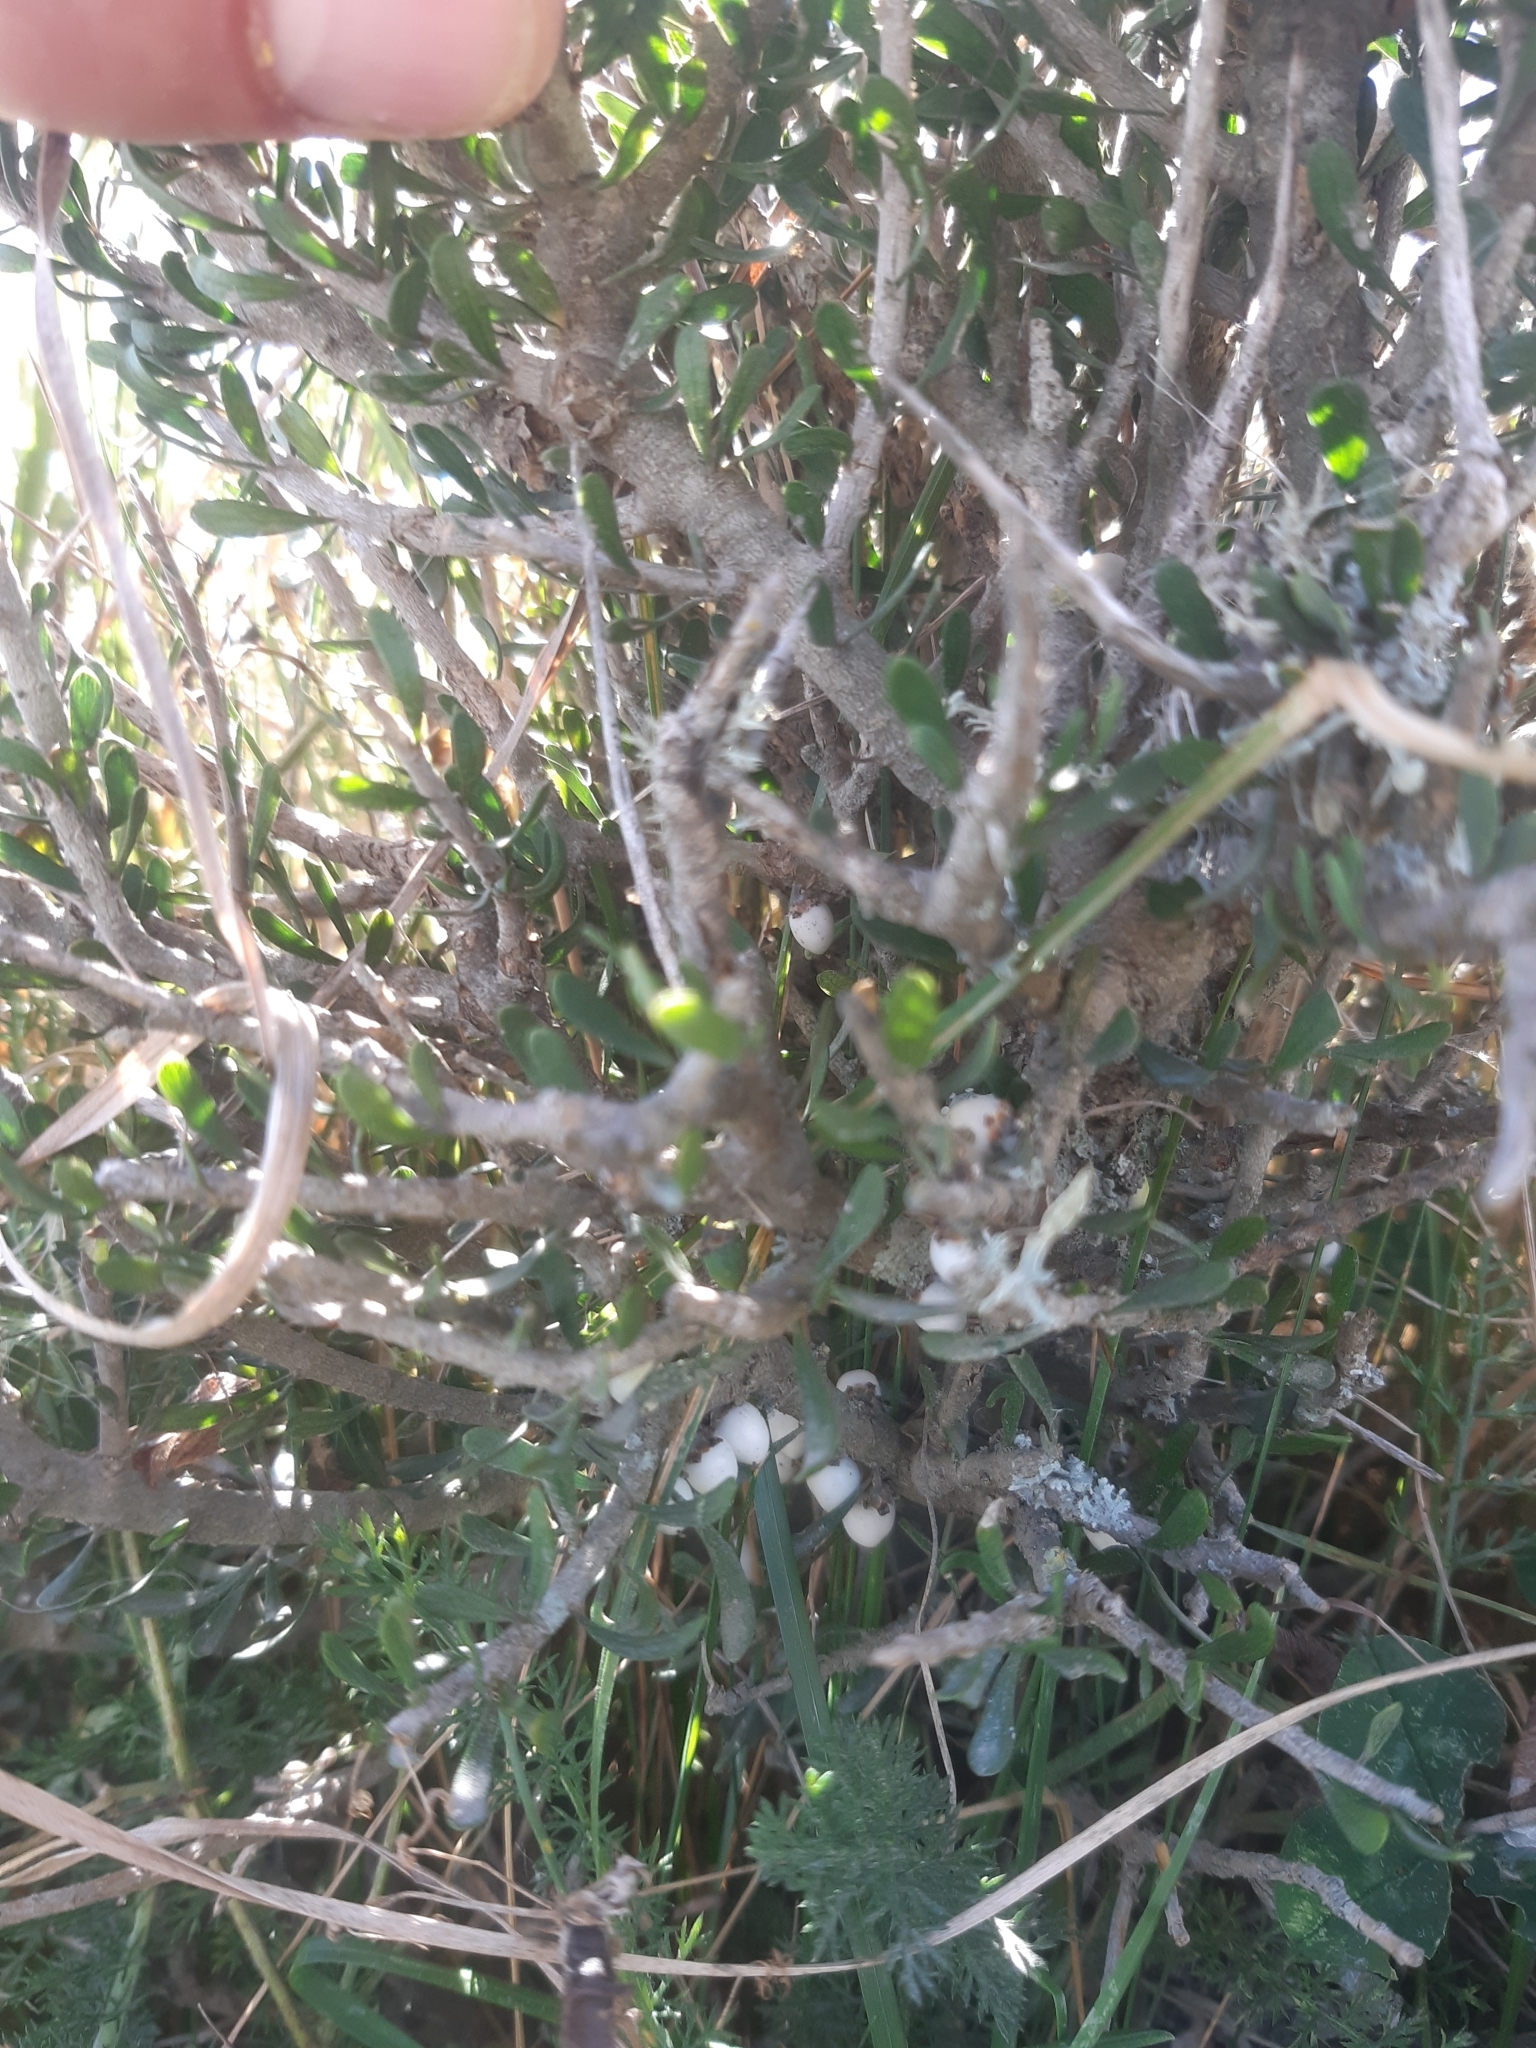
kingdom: Plantae
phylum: Tracheophyta
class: Magnoliopsida
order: Malpighiales
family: Violaceae
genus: Melicytus
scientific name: Melicytus alpinus
